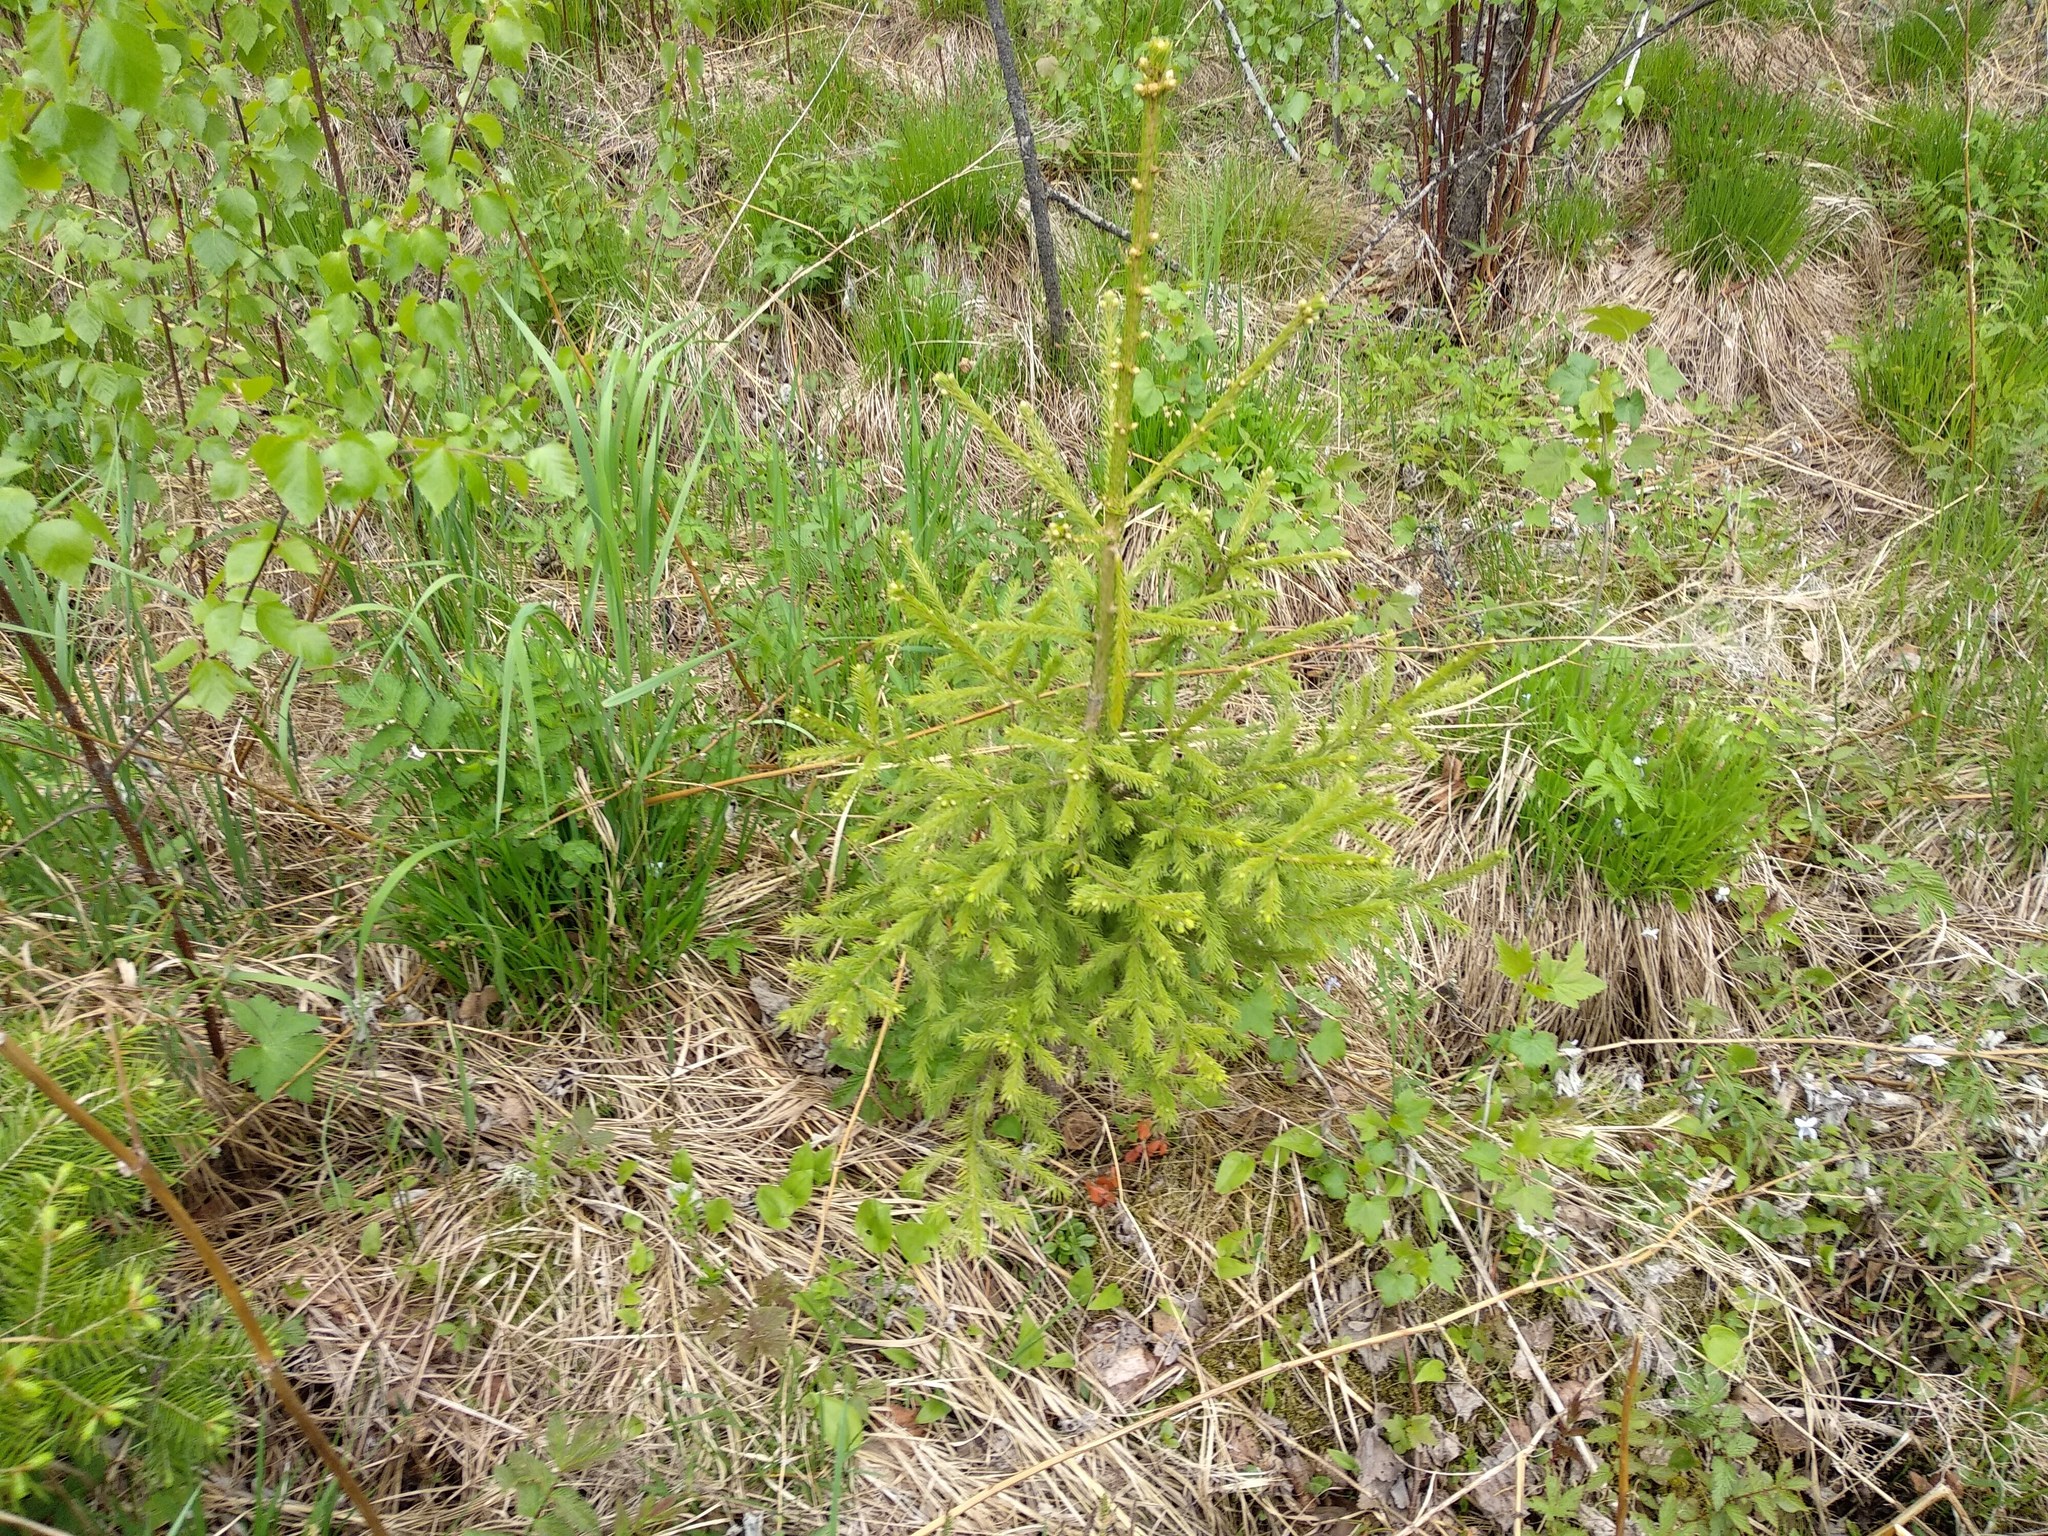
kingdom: Plantae
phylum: Tracheophyta
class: Pinopsida
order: Pinales
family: Pinaceae
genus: Picea
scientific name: Picea obovata
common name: Siberian spruce
